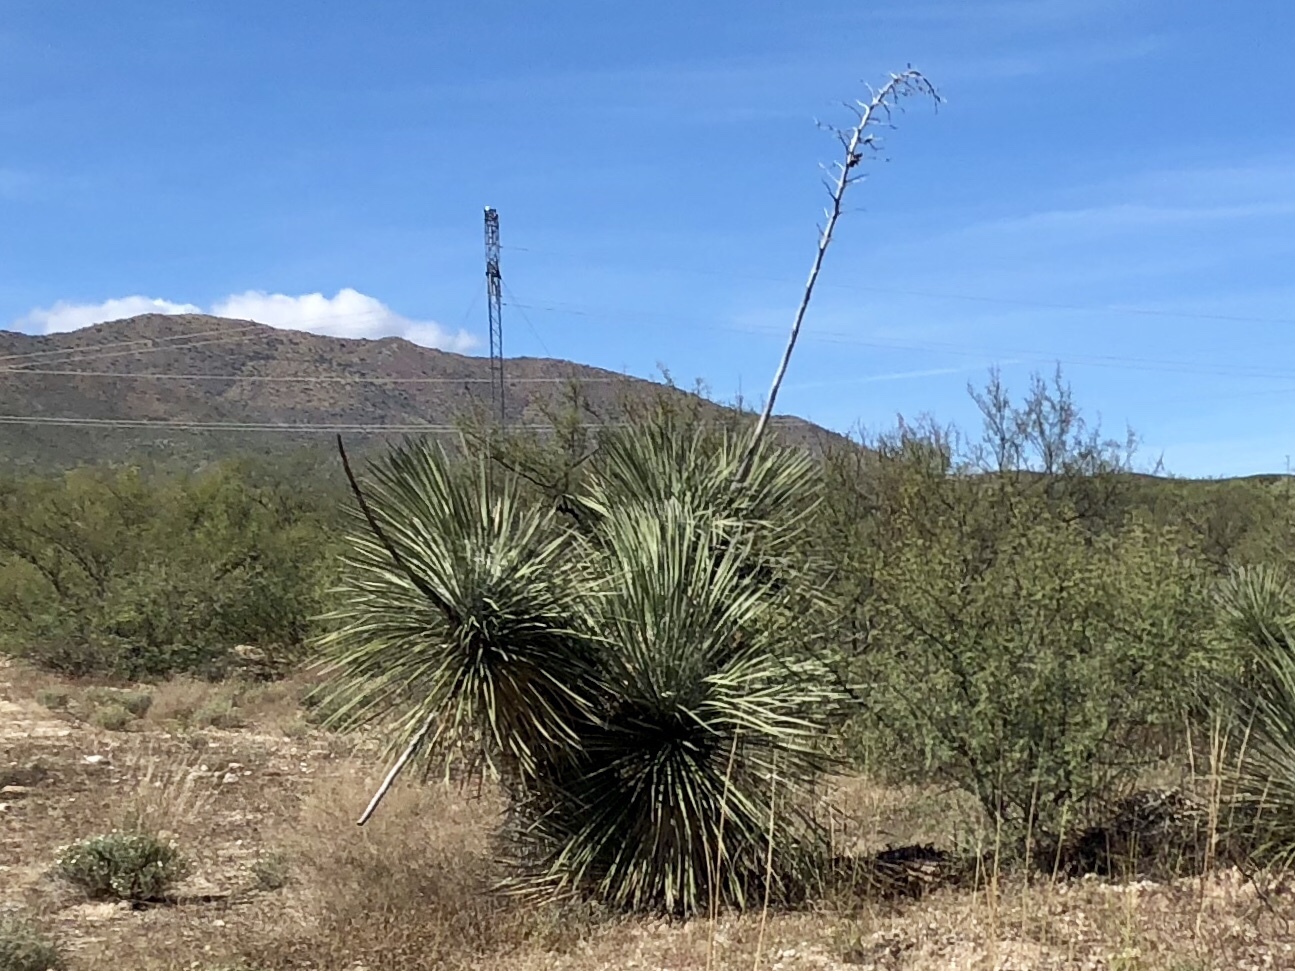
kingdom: Plantae
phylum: Tracheophyta
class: Liliopsida
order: Asparagales
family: Asparagaceae
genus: Yucca
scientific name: Yucca elata
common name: Palmella
